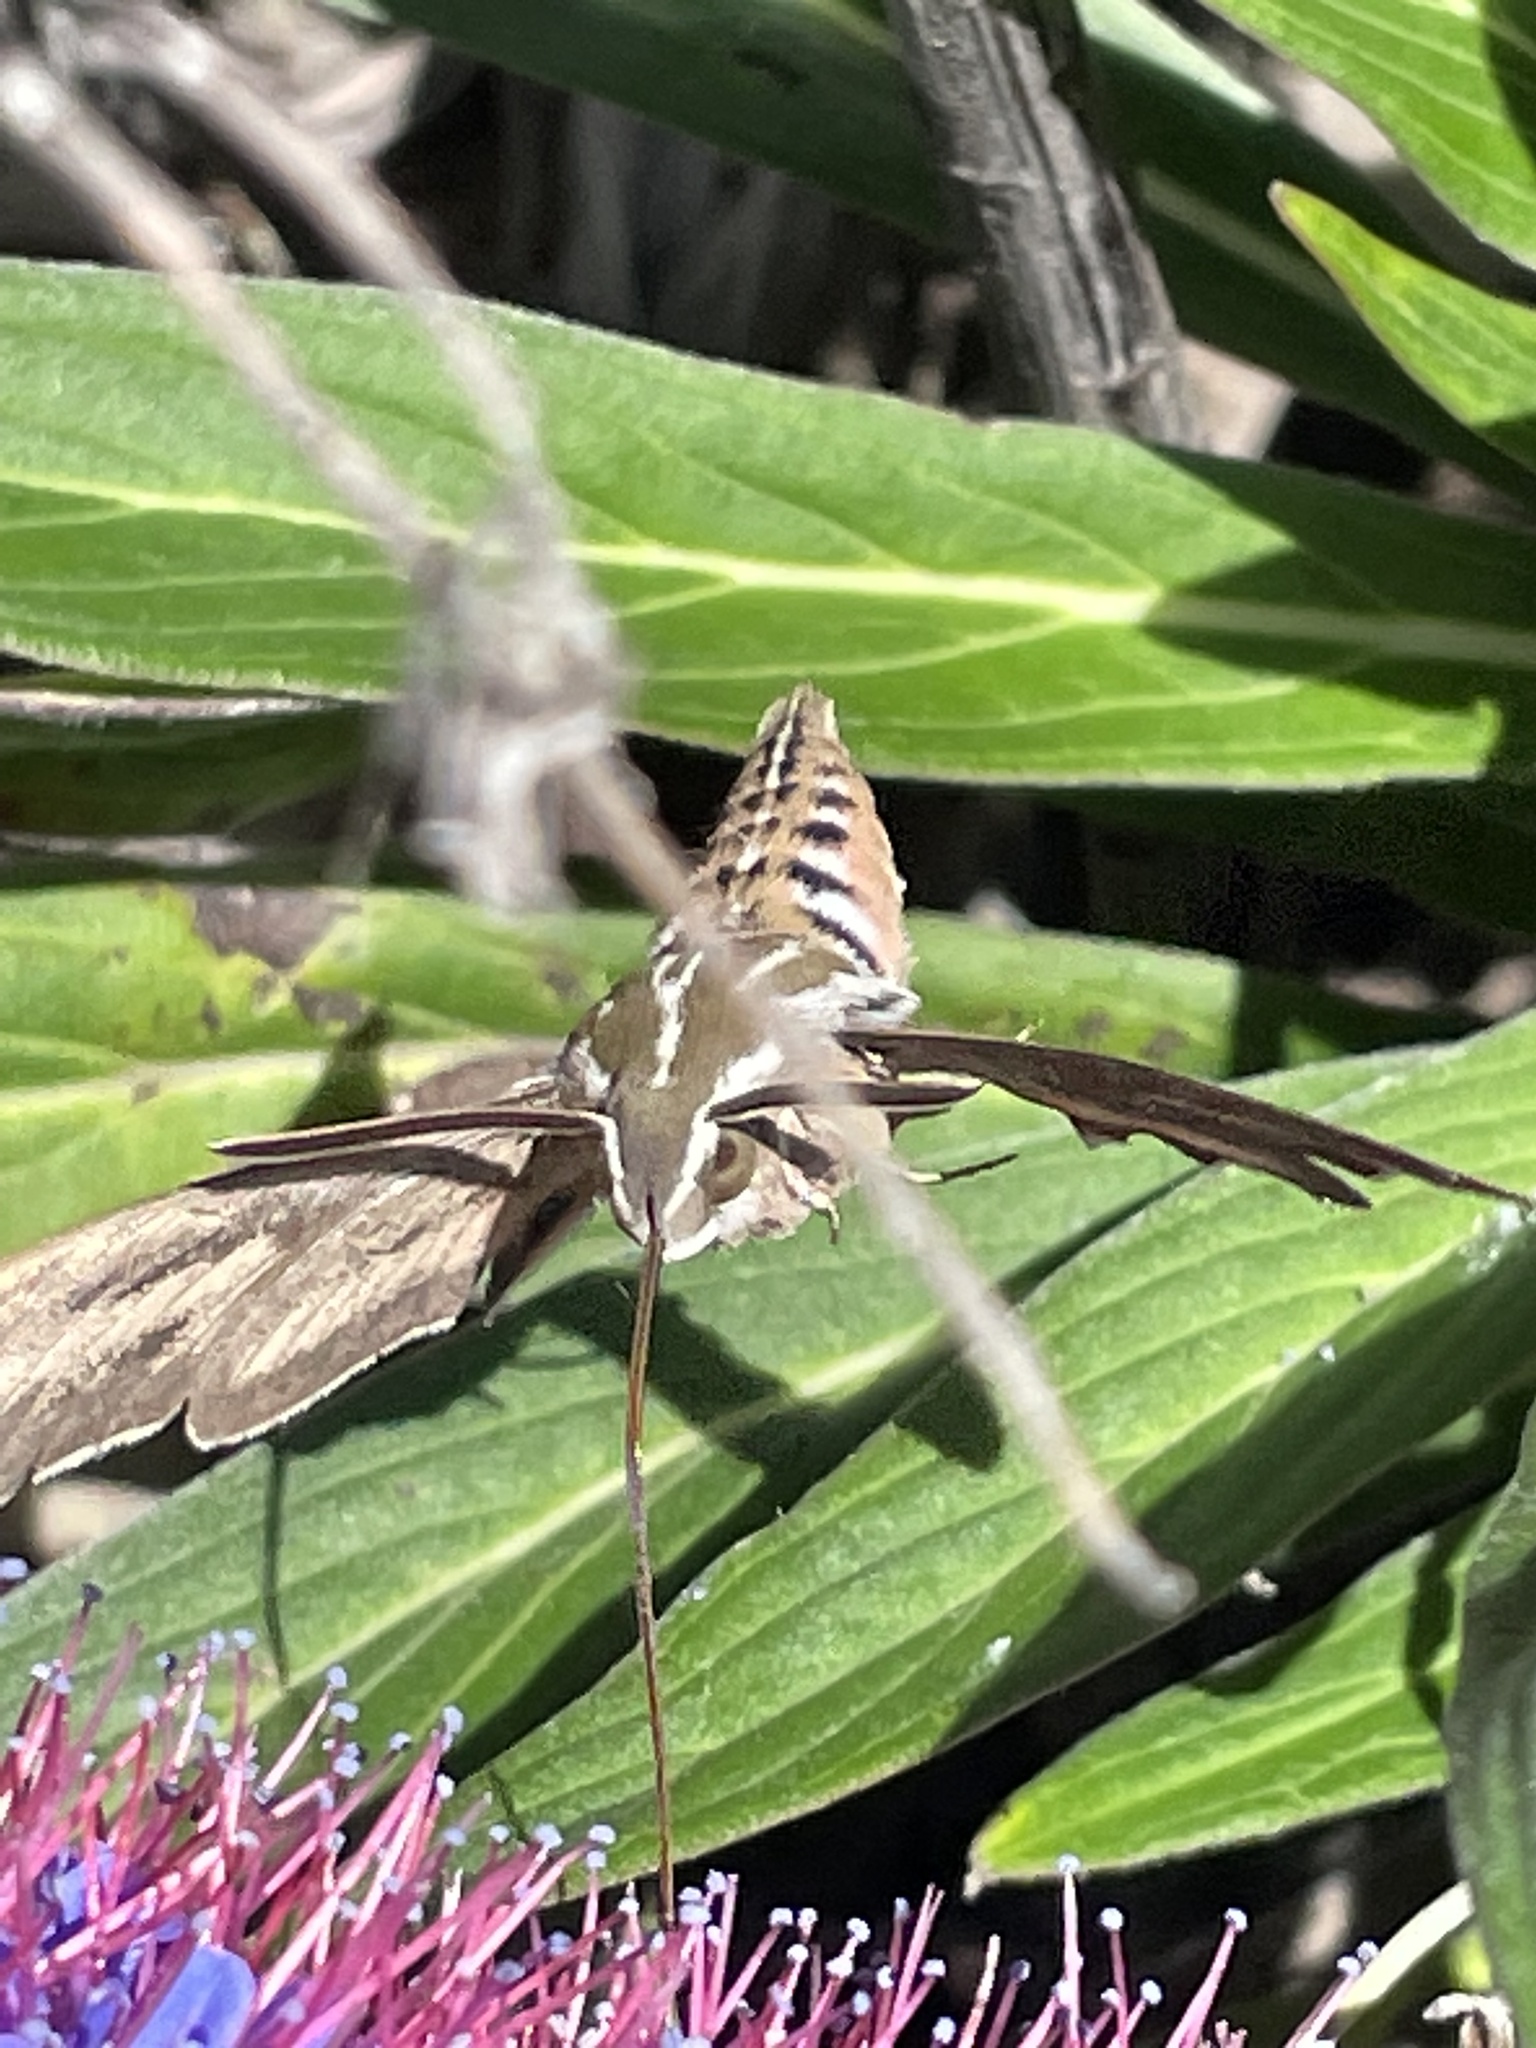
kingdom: Animalia
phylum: Arthropoda
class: Insecta
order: Lepidoptera
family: Sphingidae
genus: Hyles
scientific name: Hyles lineata
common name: White-lined sphinx
